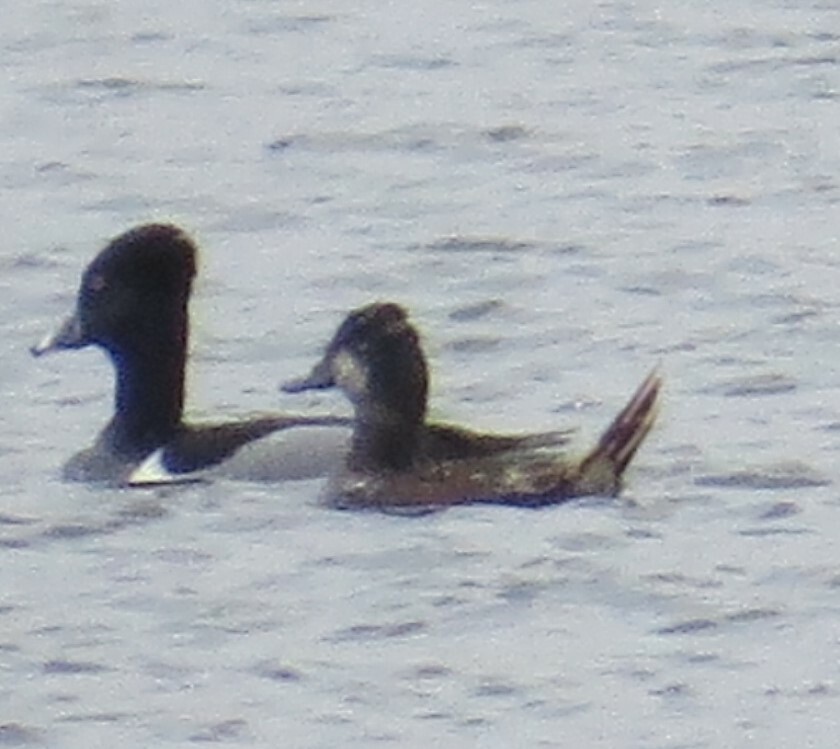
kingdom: Animalia
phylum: Chordata
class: Aves
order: Anseriformes
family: Anatidae
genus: Aythya
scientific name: Aythya collaris
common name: Ring-necked duck
